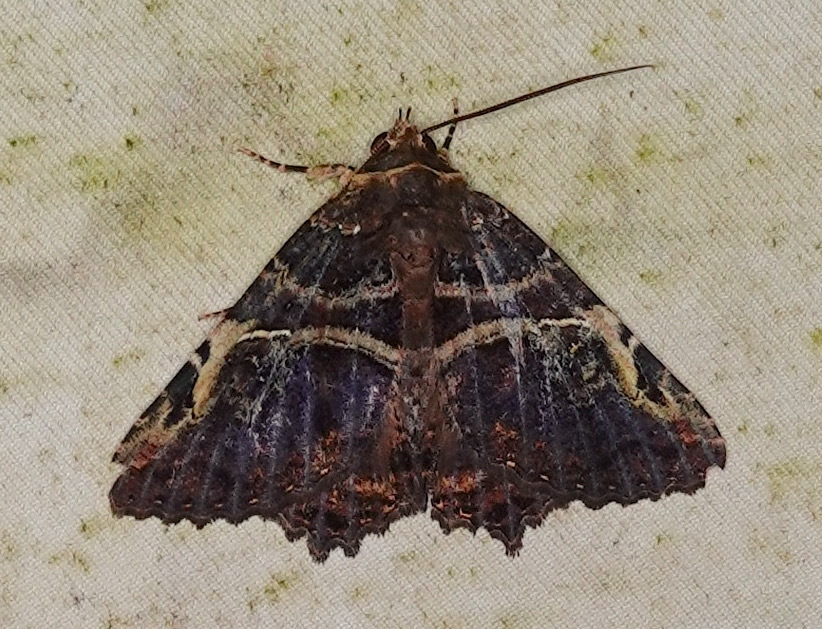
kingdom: Animalia
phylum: Arthropoda
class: Insecta
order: Lepidoptera
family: Erebidae
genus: Daddala
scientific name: Daddala microdesma
